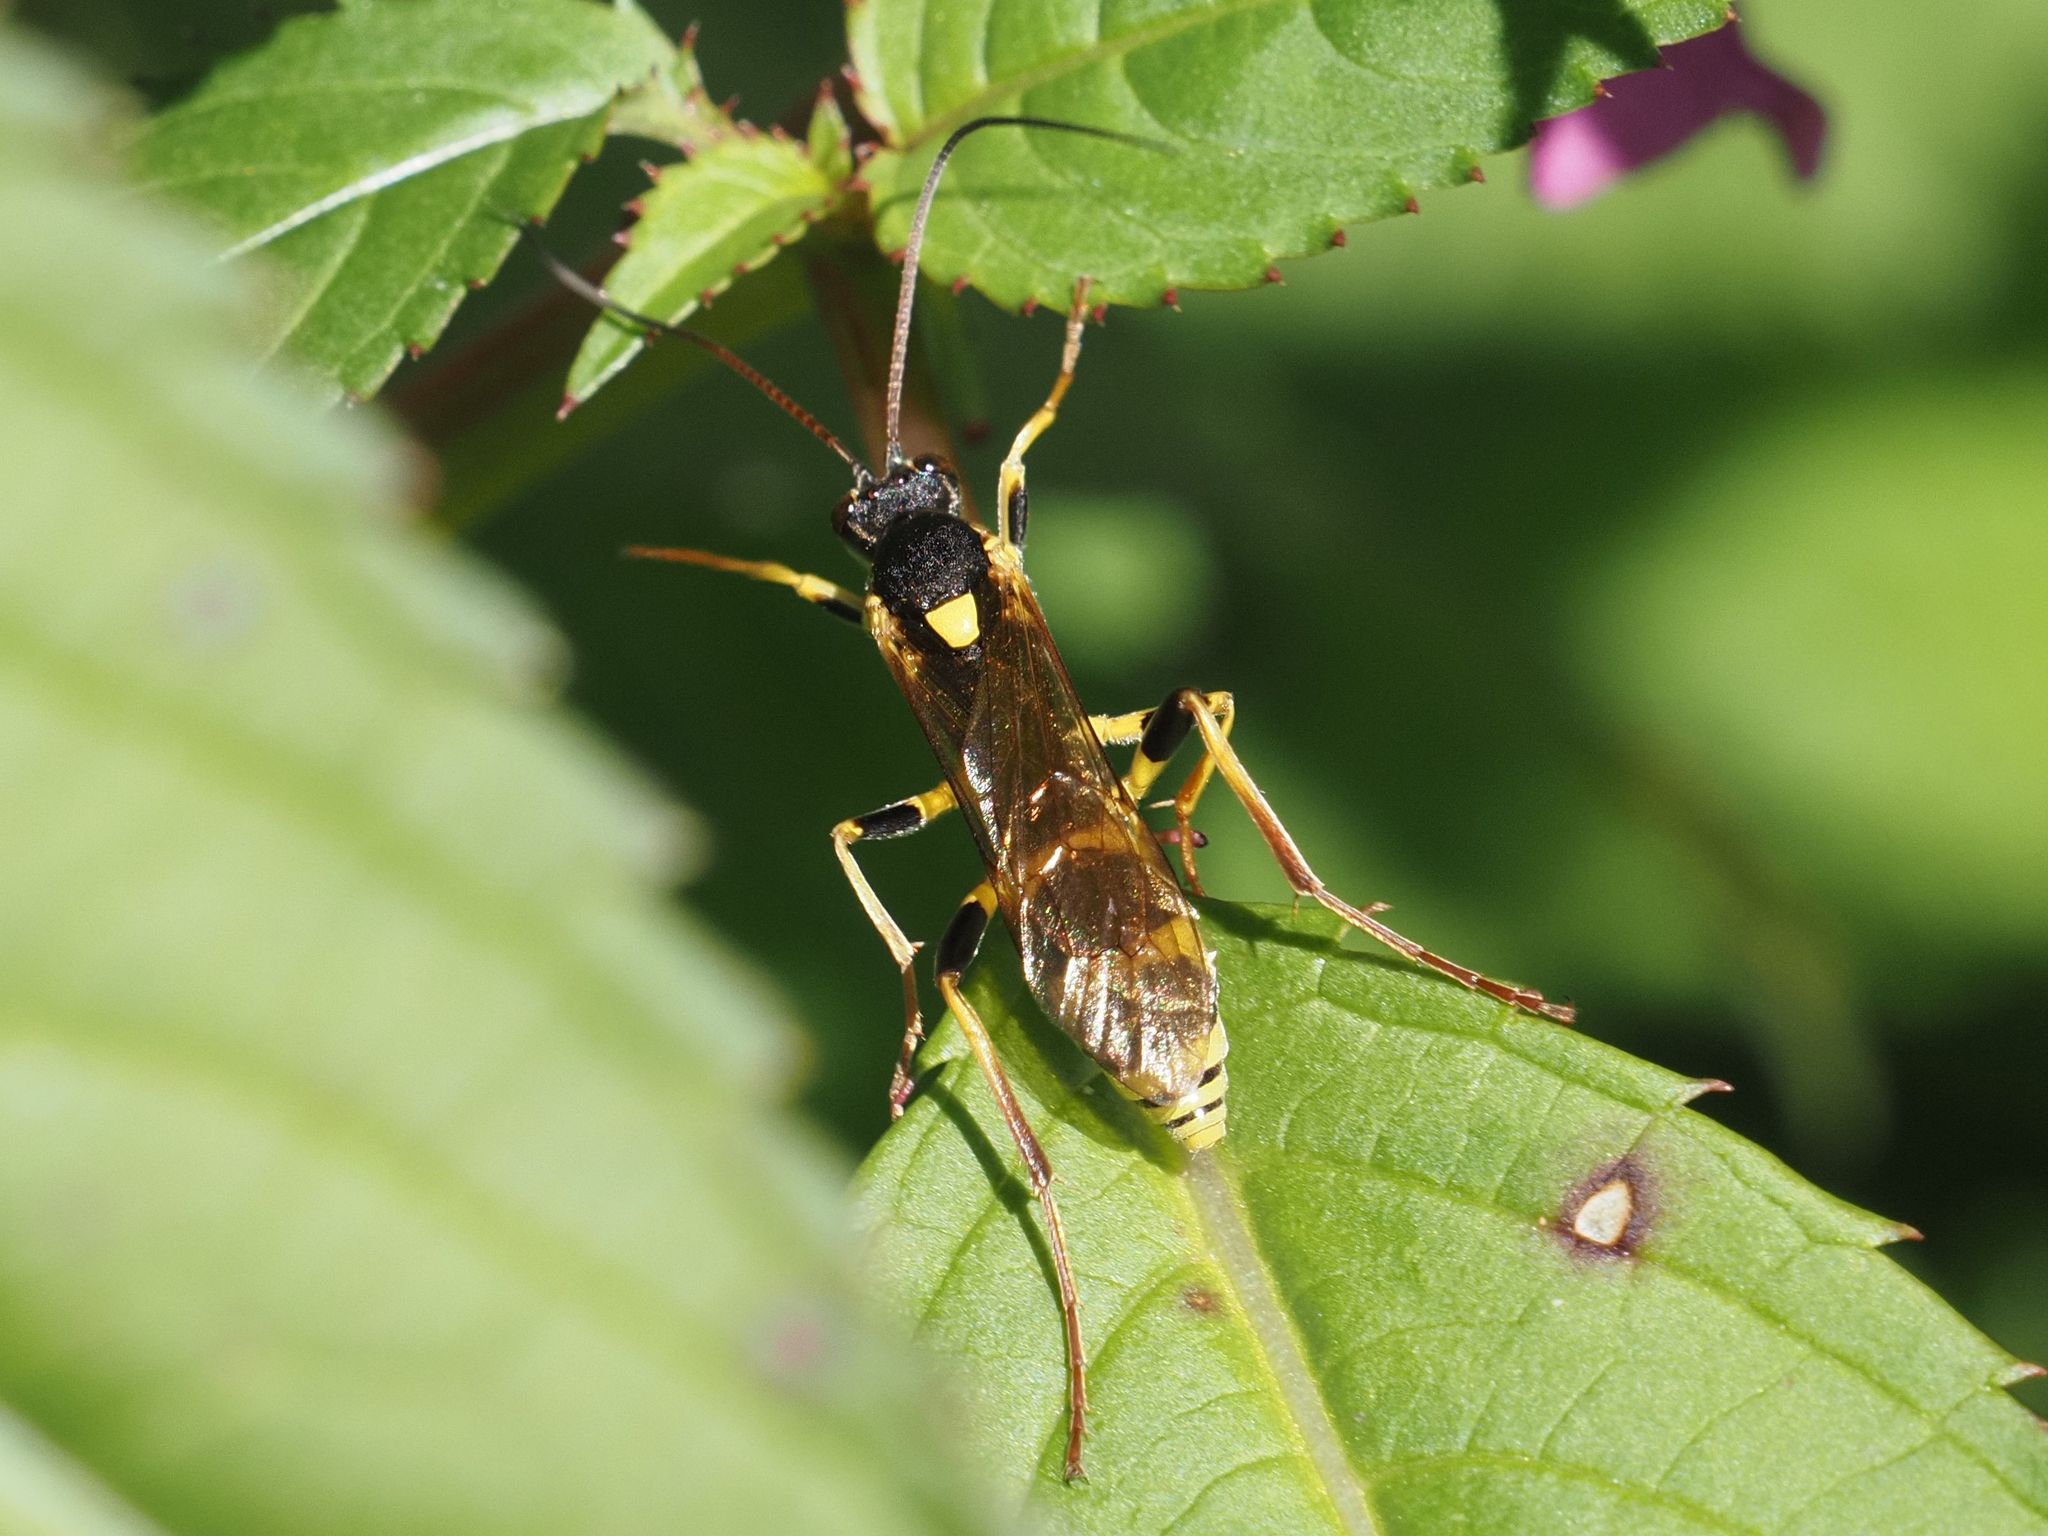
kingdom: Animalia
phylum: Arthropoda
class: Insecta
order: Hymenoptera
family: Ichneumonidae
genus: Amblyteles
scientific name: Amblyteles armatorius
